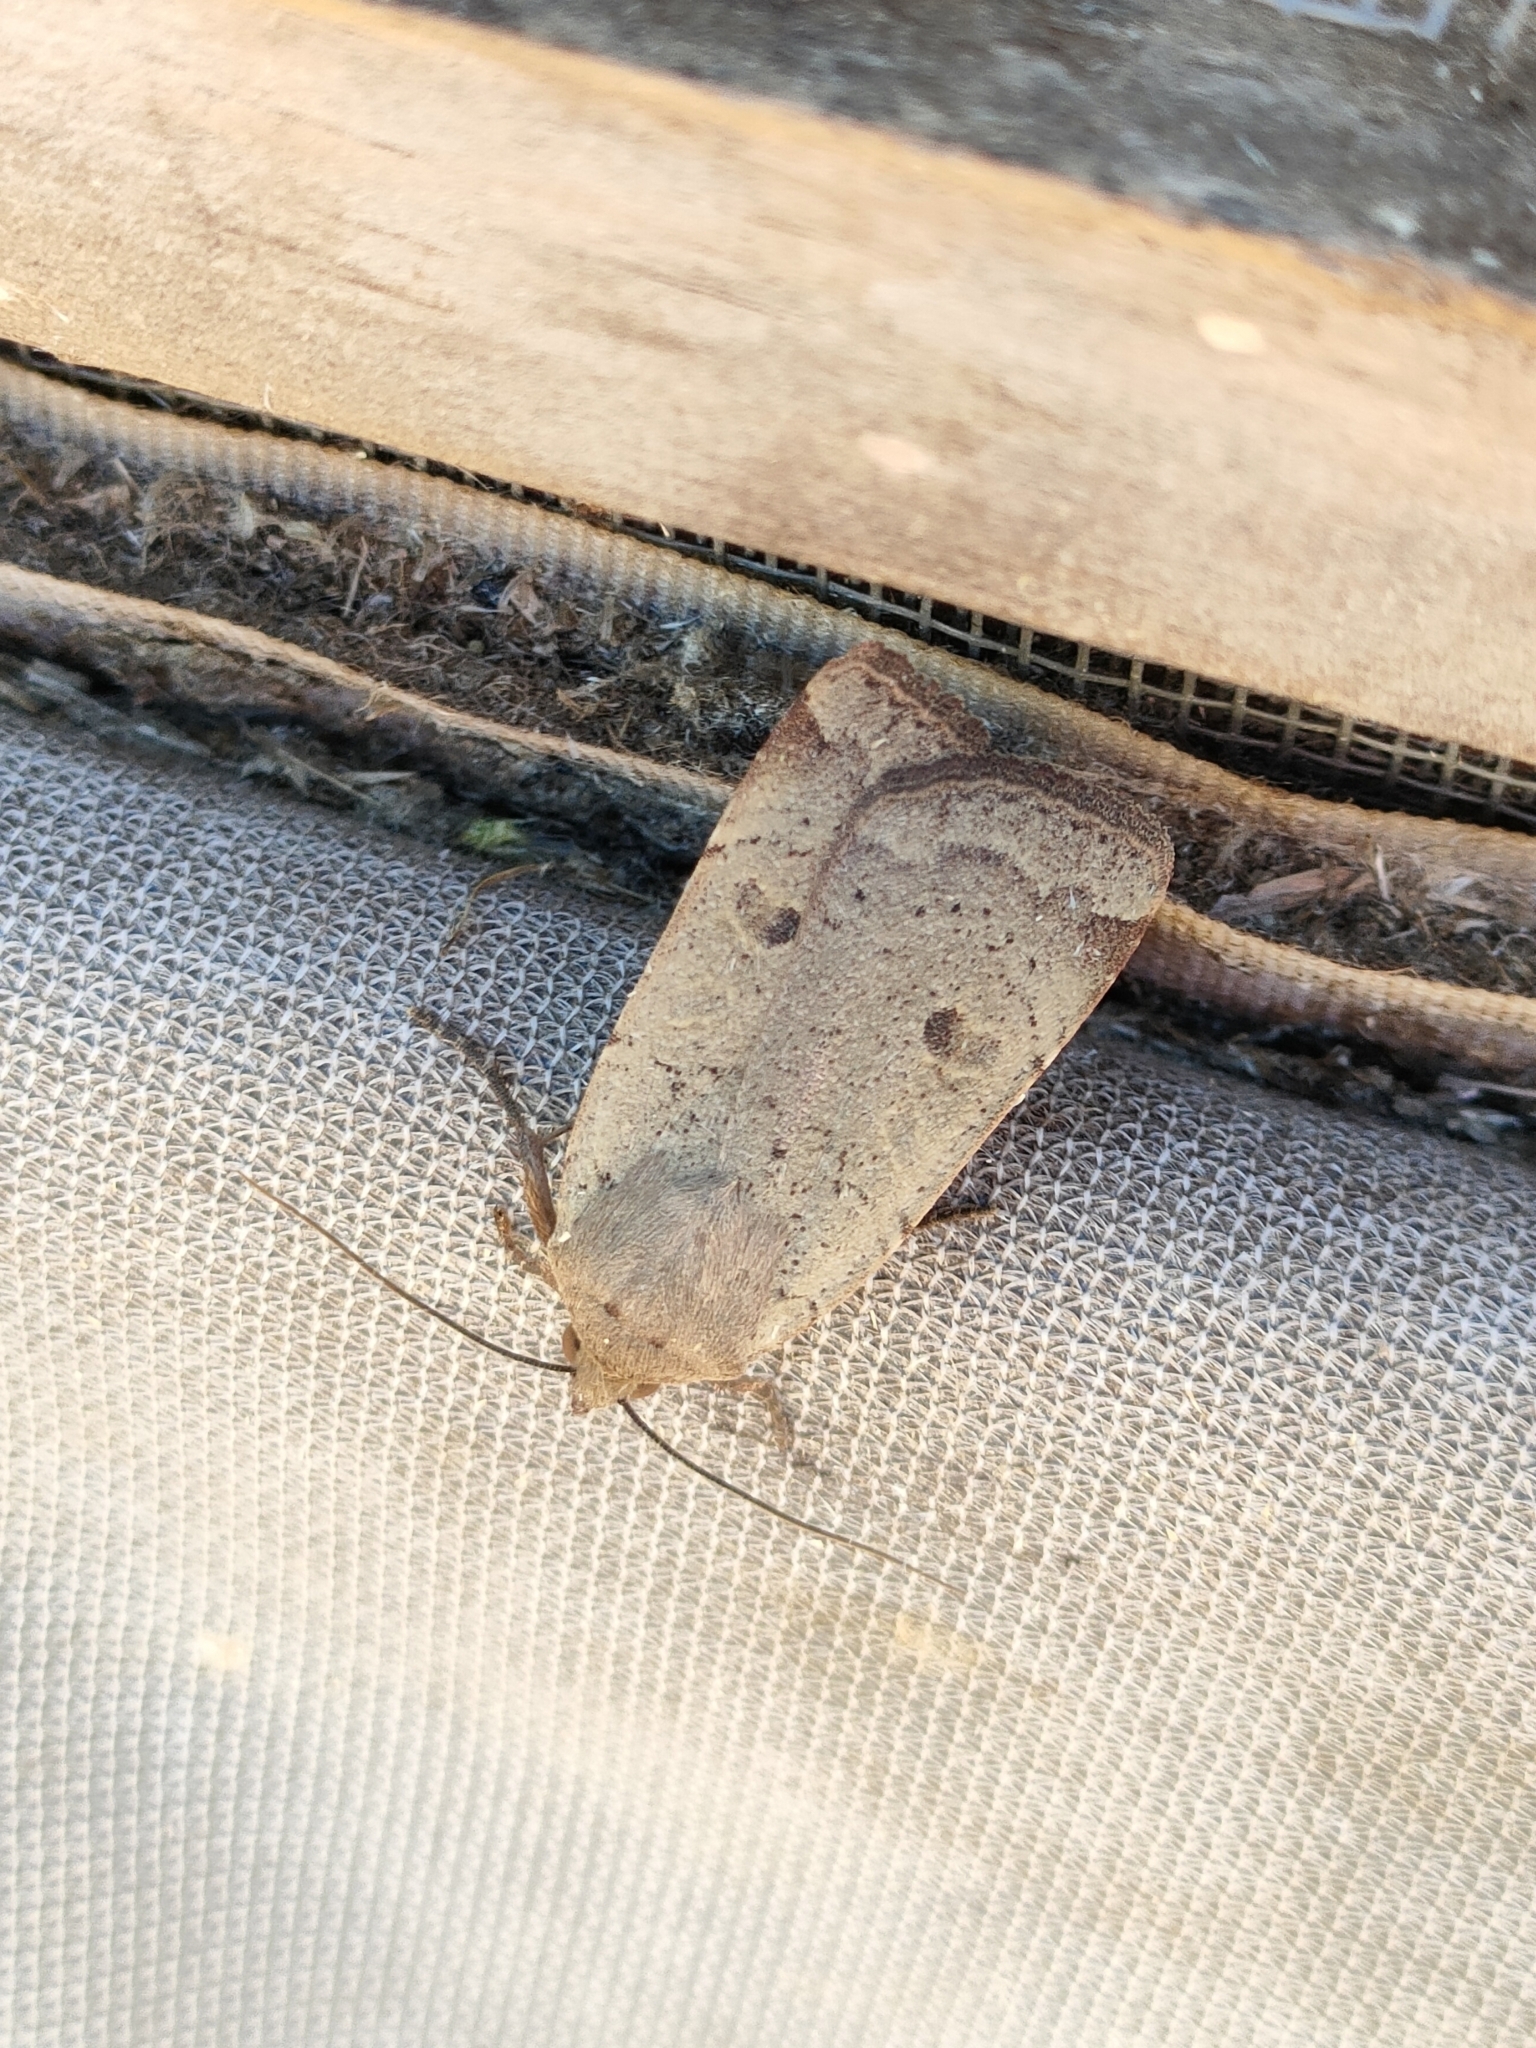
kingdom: Animalia
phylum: Arthropoda
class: Insecta
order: Lepidoptera
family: Noctuidae
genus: Noctua
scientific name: Noctua comes
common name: Lesser yellow underwing
